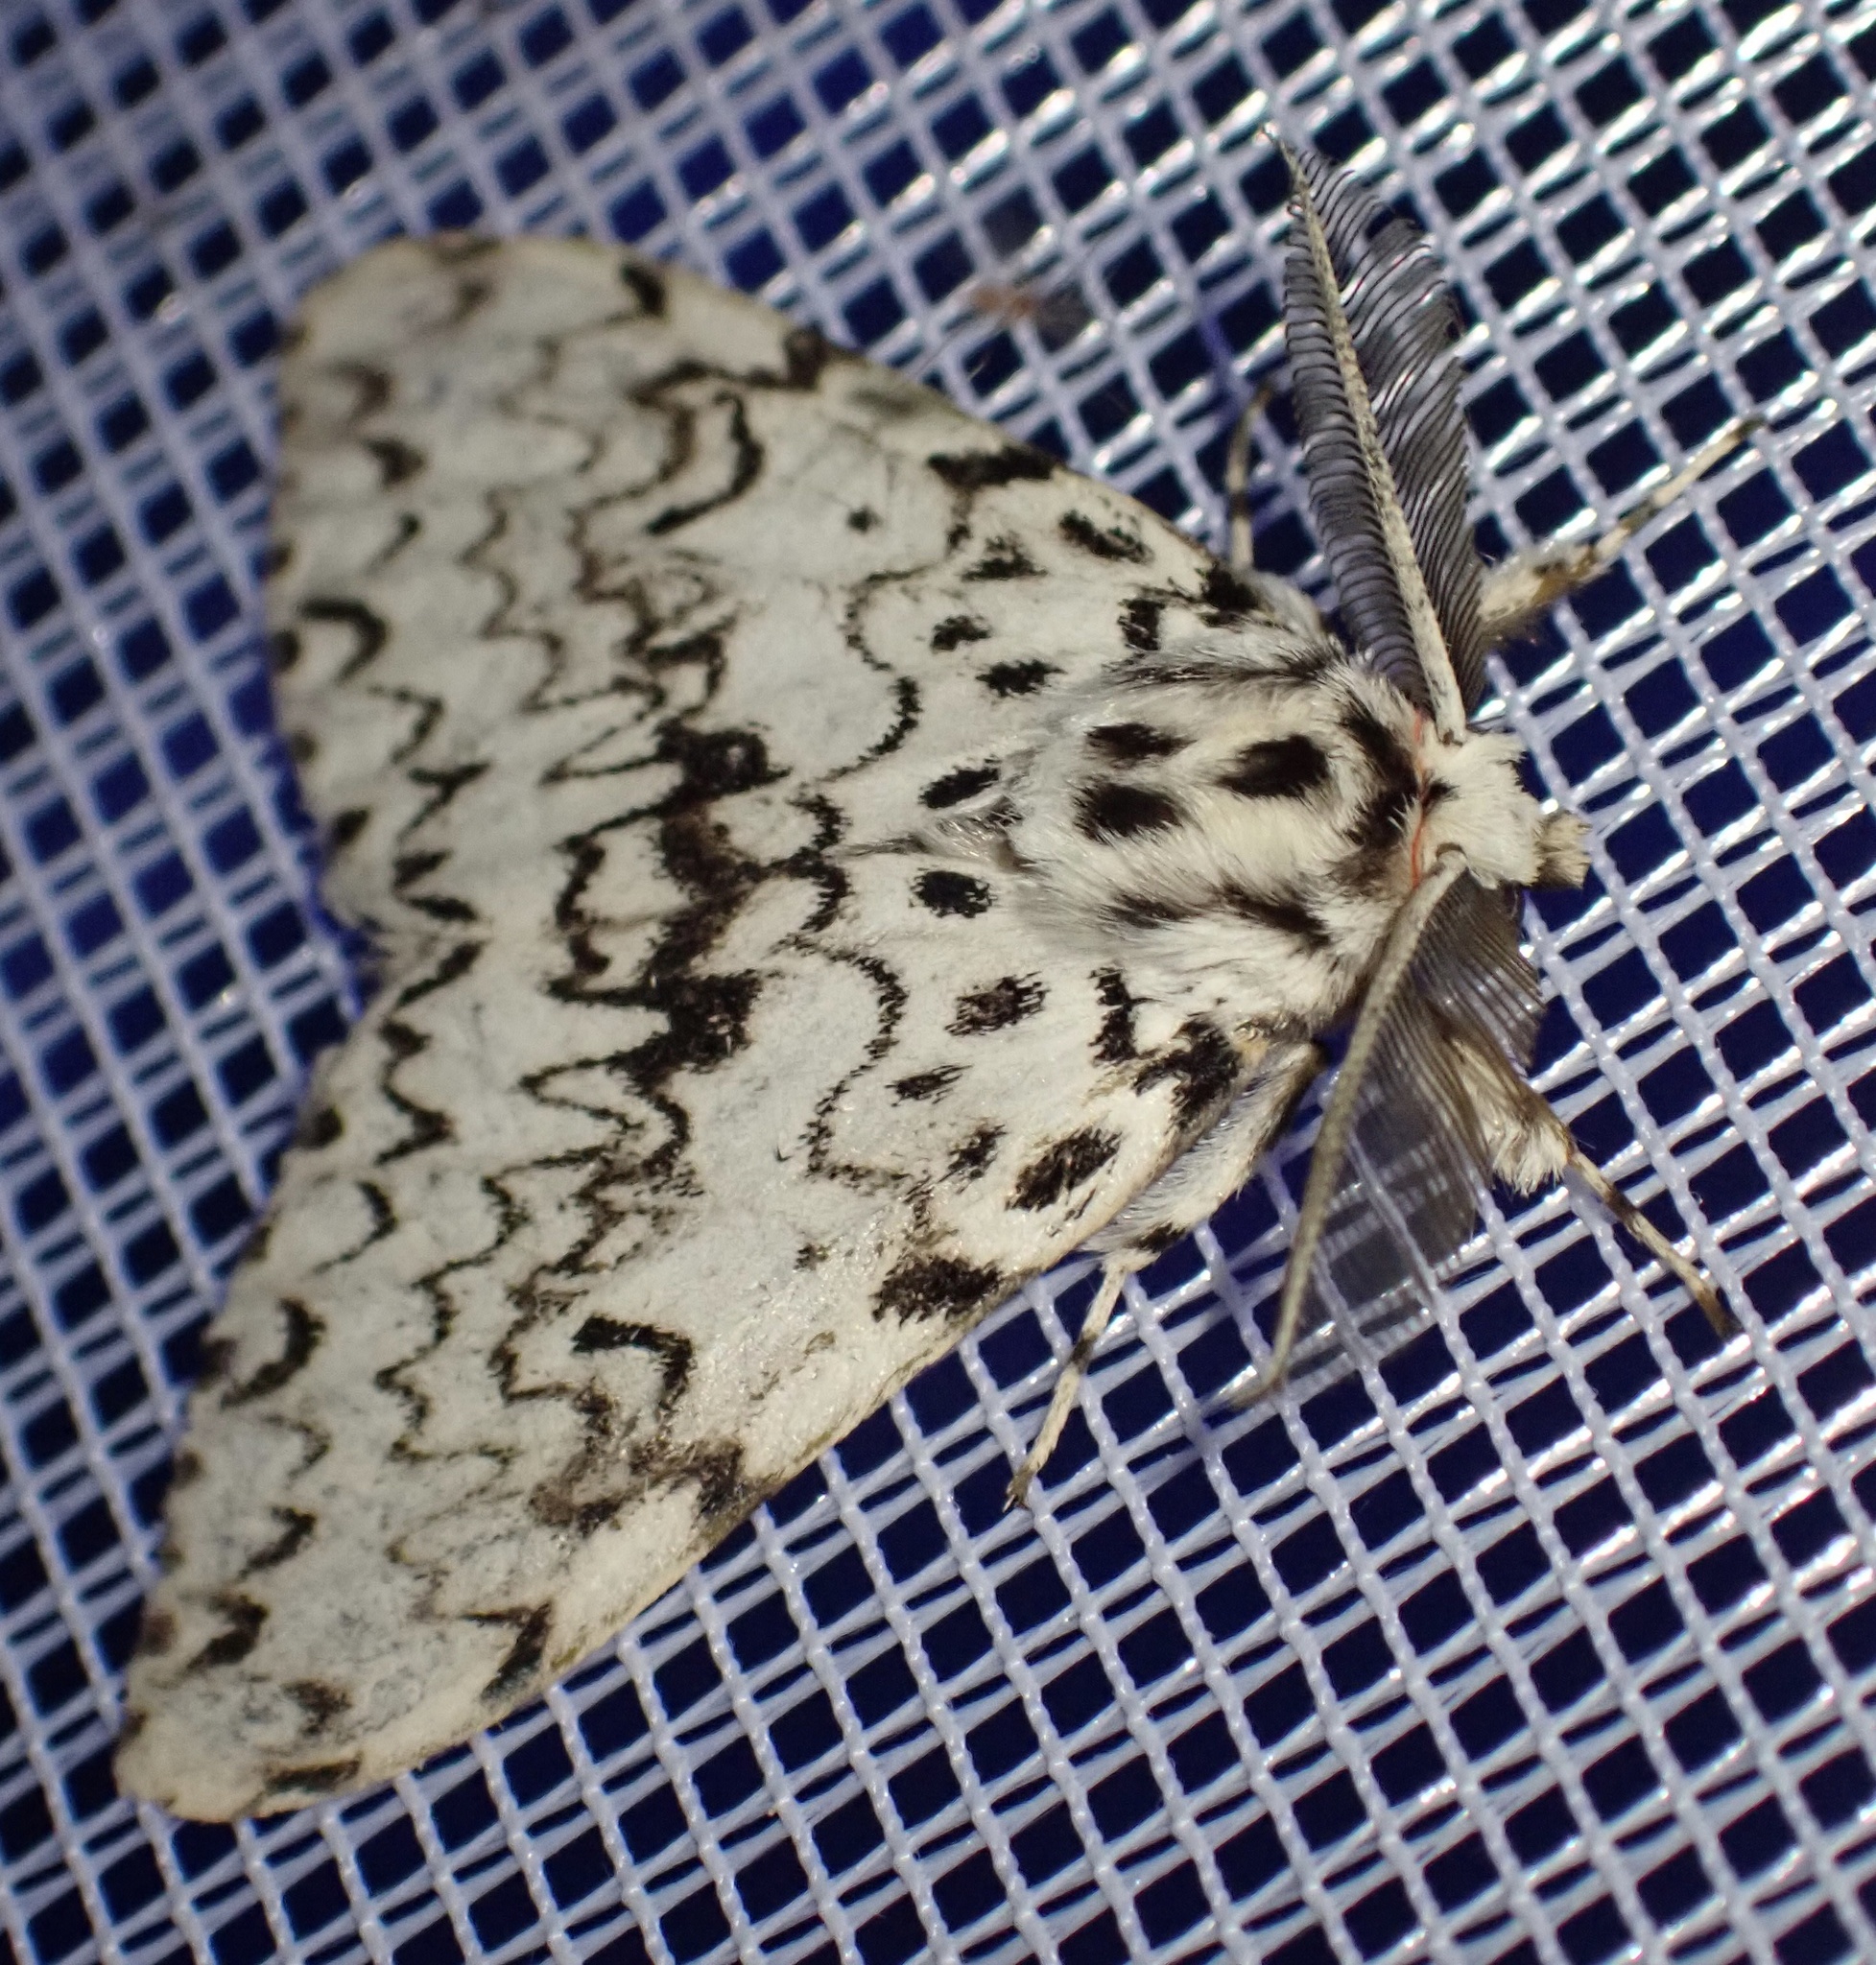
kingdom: Animalia
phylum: Arthropoda
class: Insecta
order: Lepidoptera
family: Erebidae
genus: Lymantria
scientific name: Lymantria monacha
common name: Black arches
